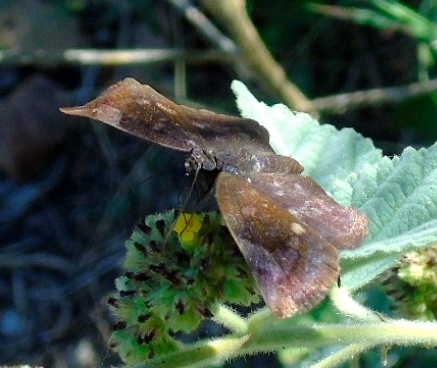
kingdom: Animalia
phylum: Arthropoda
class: Insecta
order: Lepidoptera
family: Hesperiidae
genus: Achlyodes
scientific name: Achlyodes thraso
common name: Sickle-winged skipper
